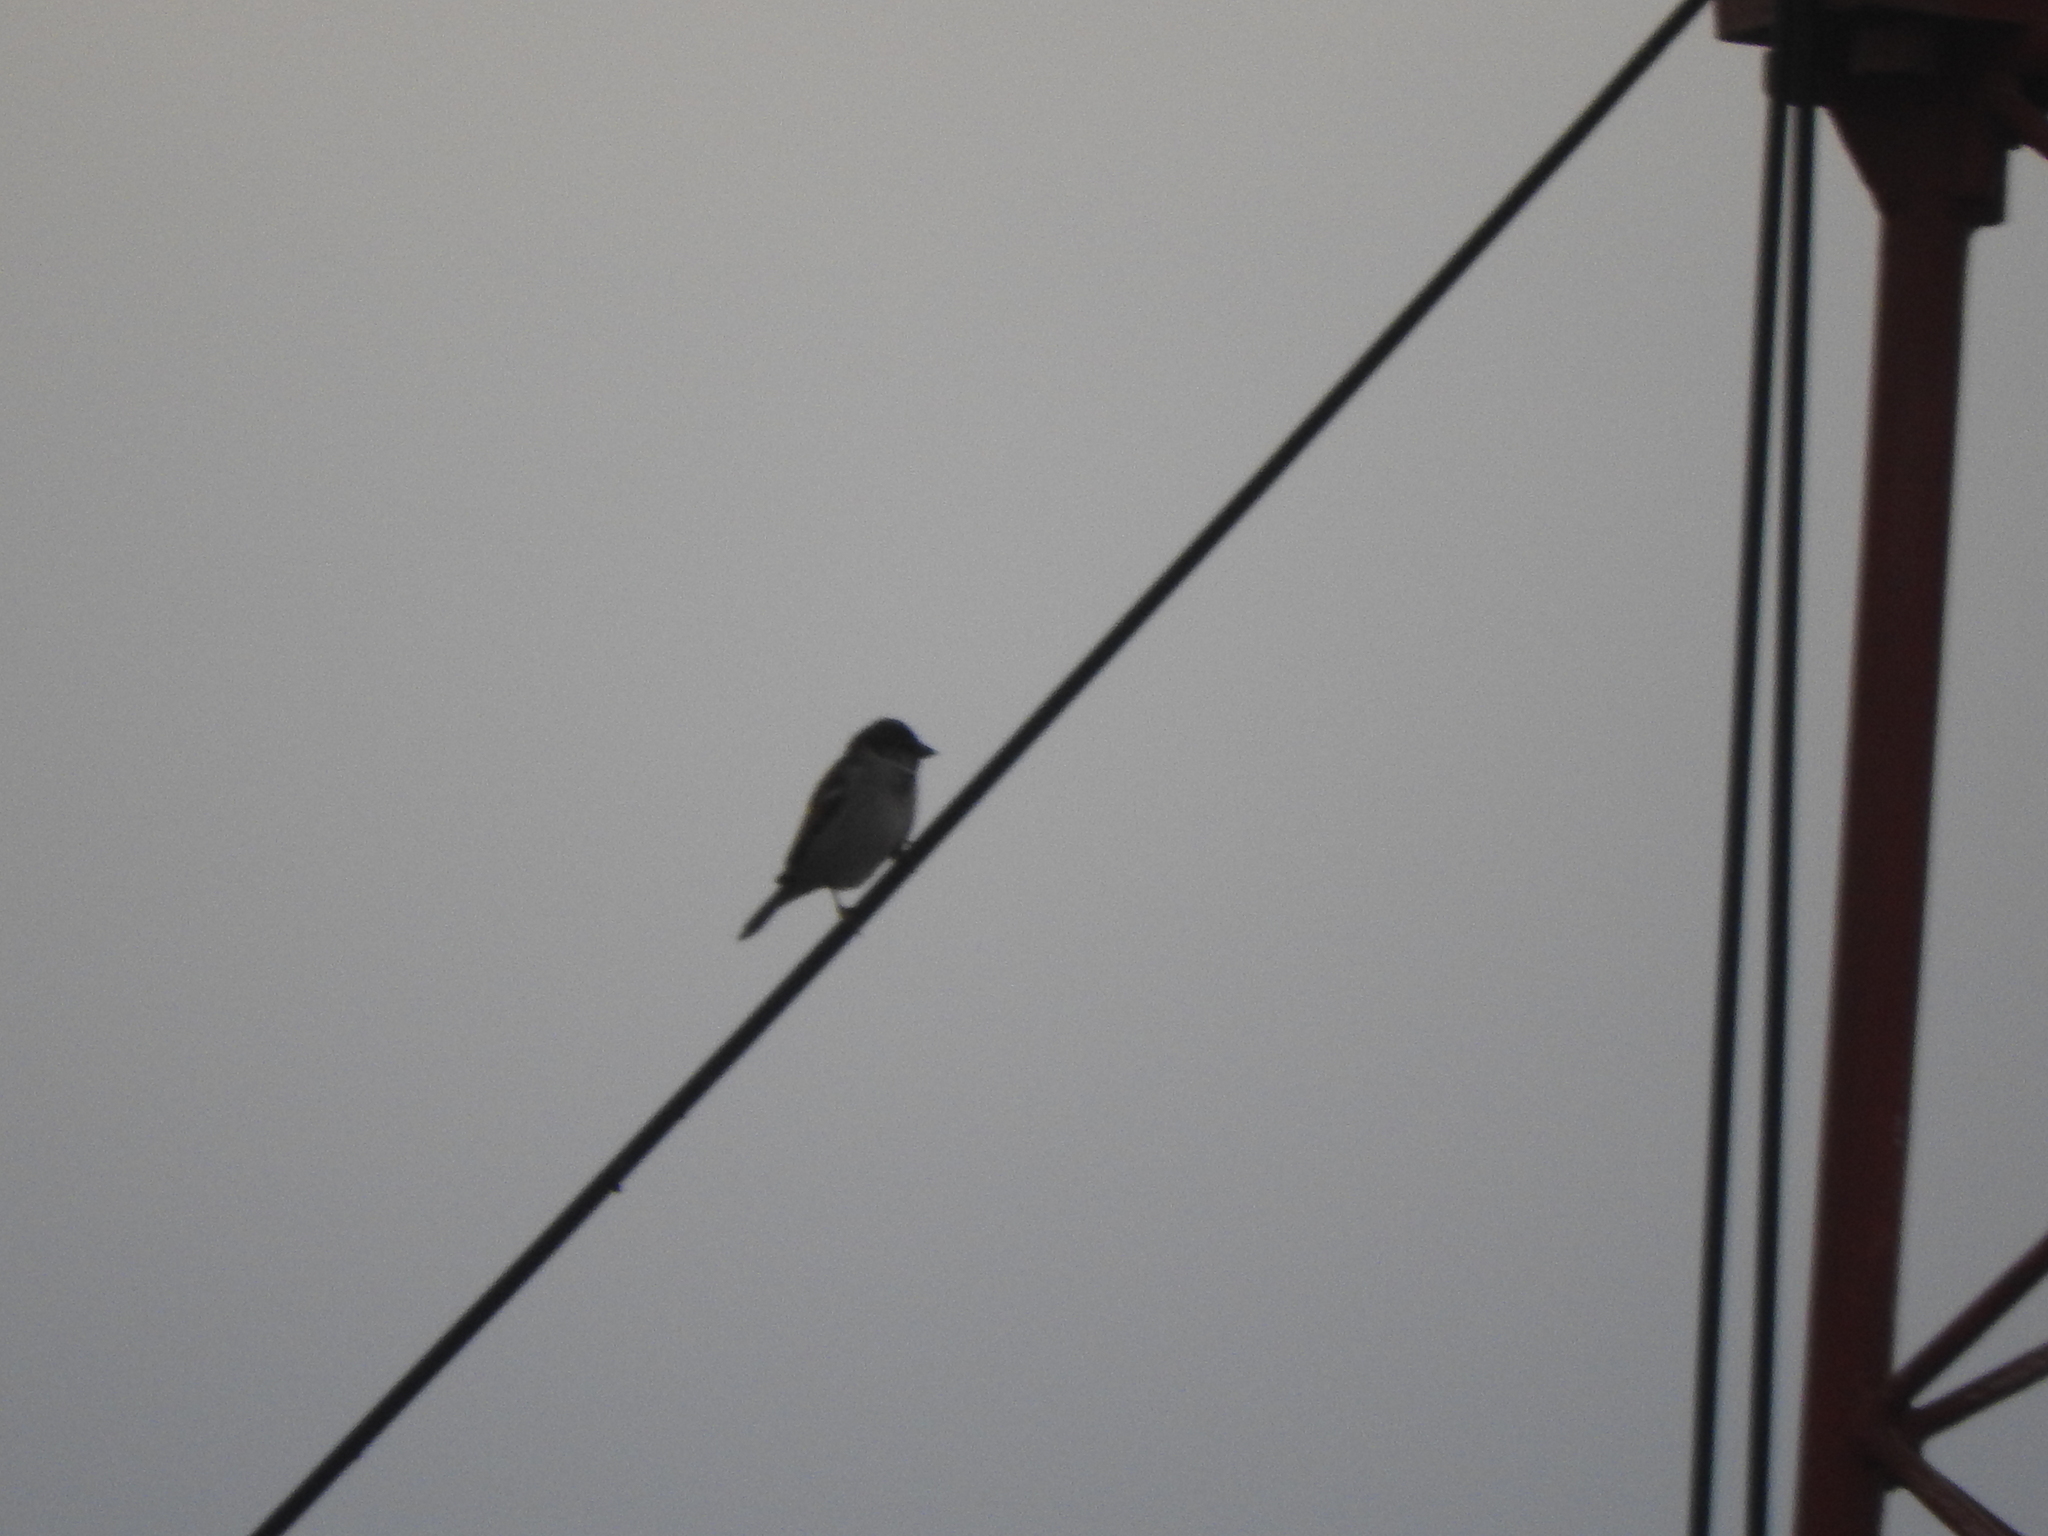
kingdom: Animalia
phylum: Chordata
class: Aves
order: Passeriformes
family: Passeridae
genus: Passer
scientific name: Passer domesticus
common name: House sparrow
